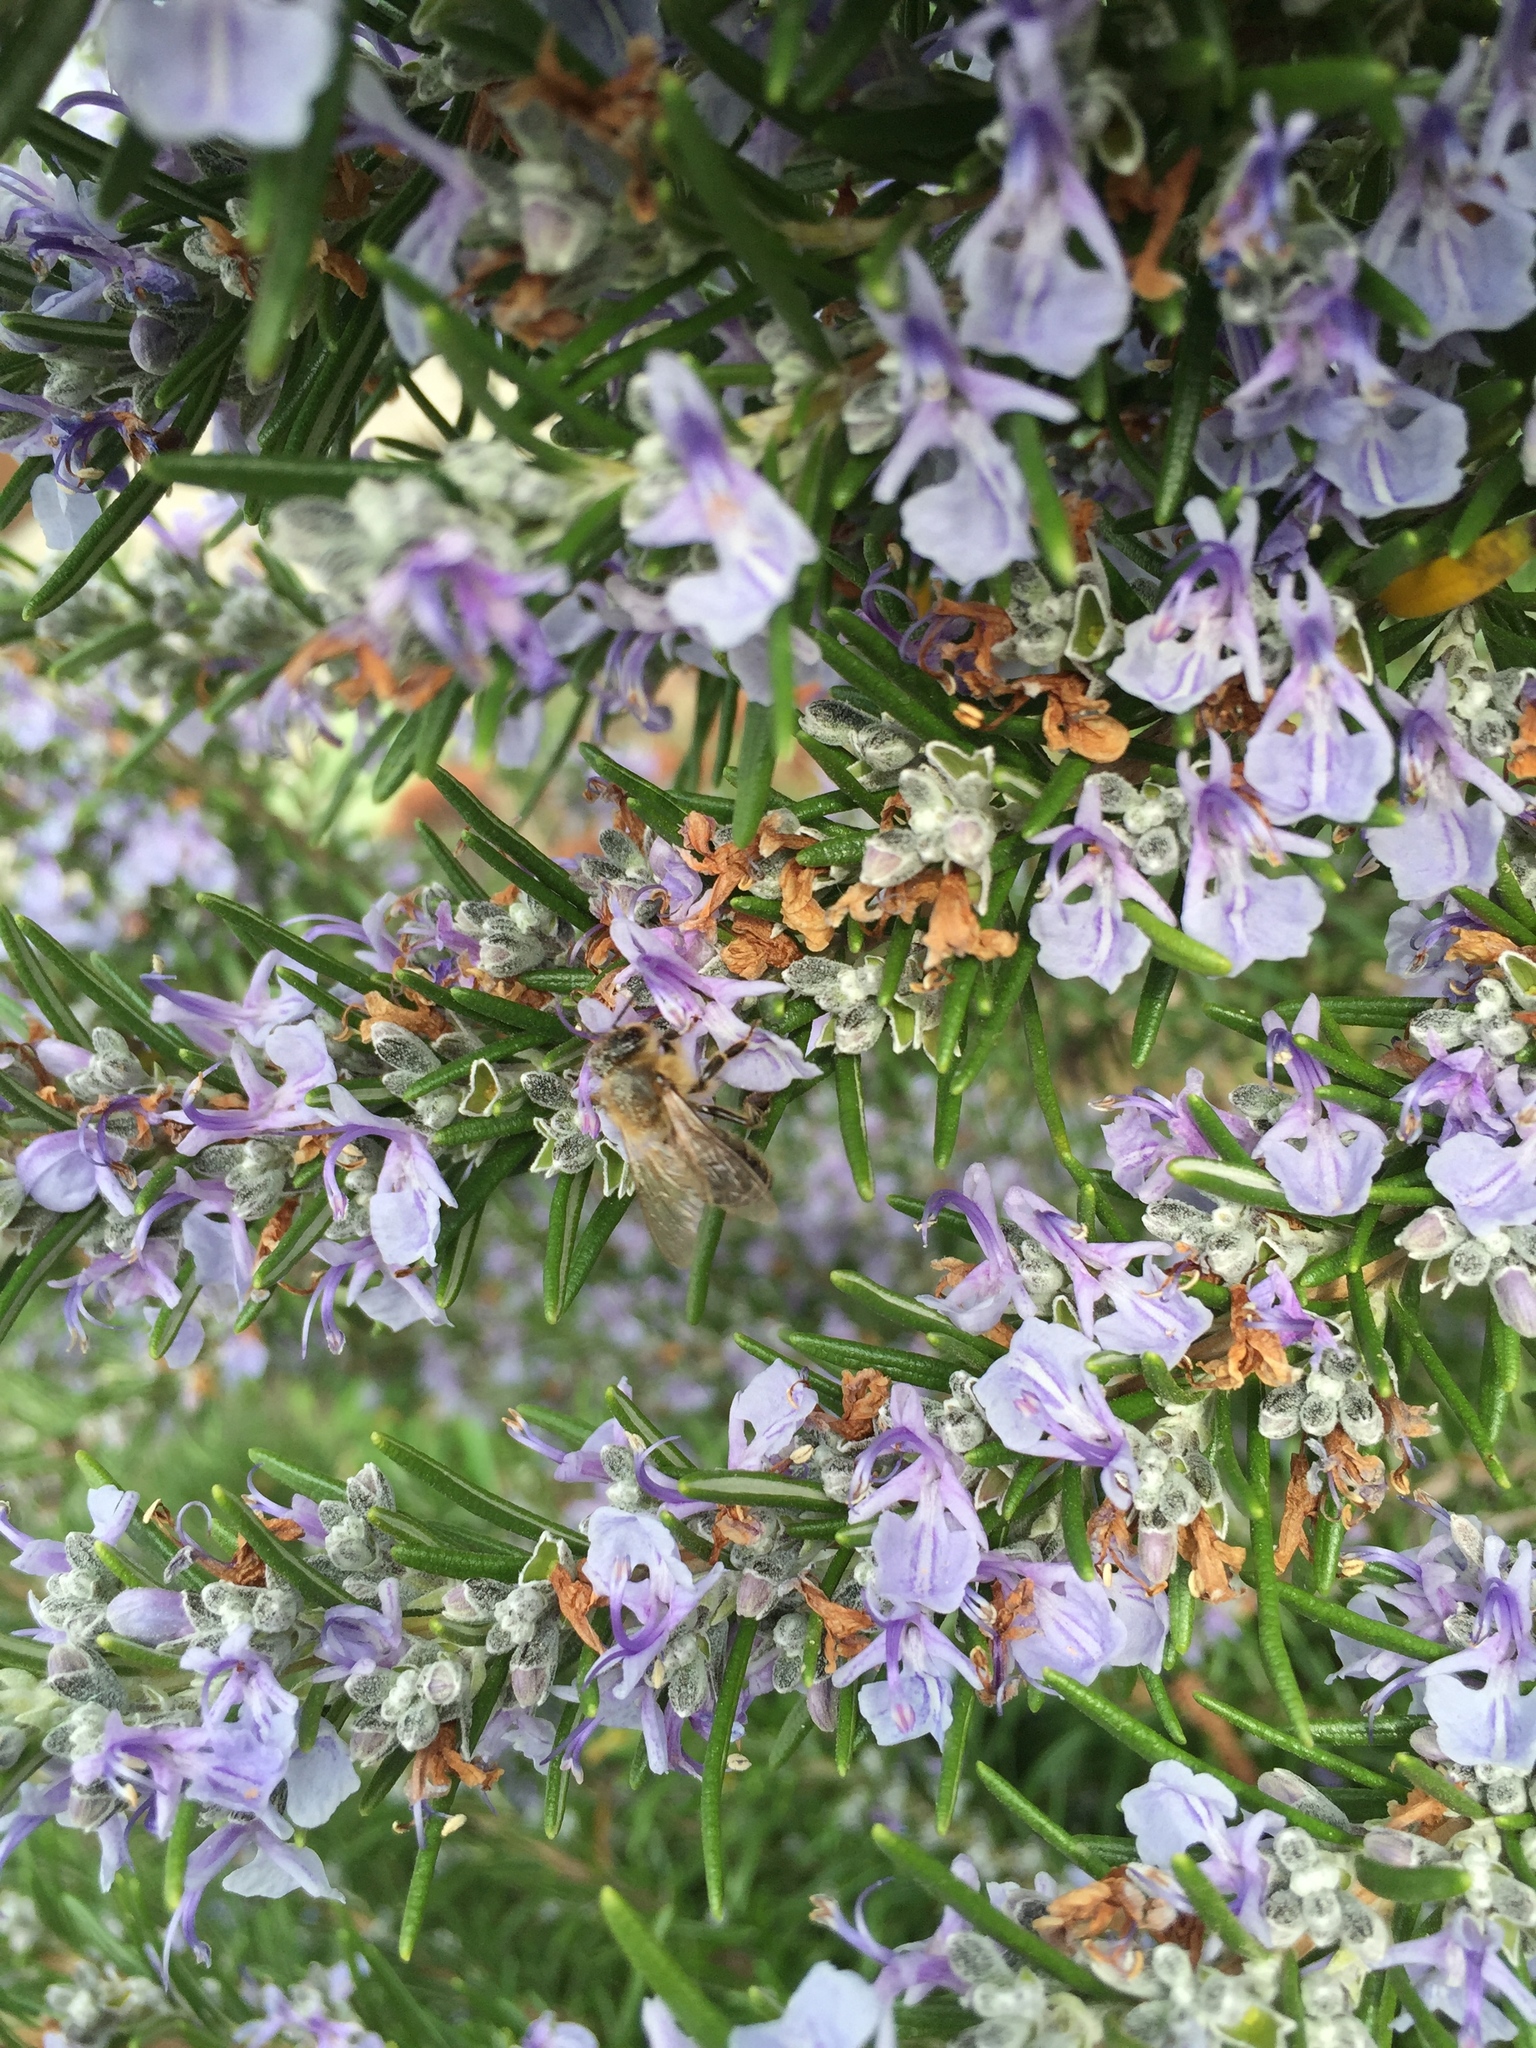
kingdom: Animalia
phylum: Arthropoda
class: Insecta
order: Hymenoptera
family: Apidae
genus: Apis
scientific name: Apis mellifera
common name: Honey bee
